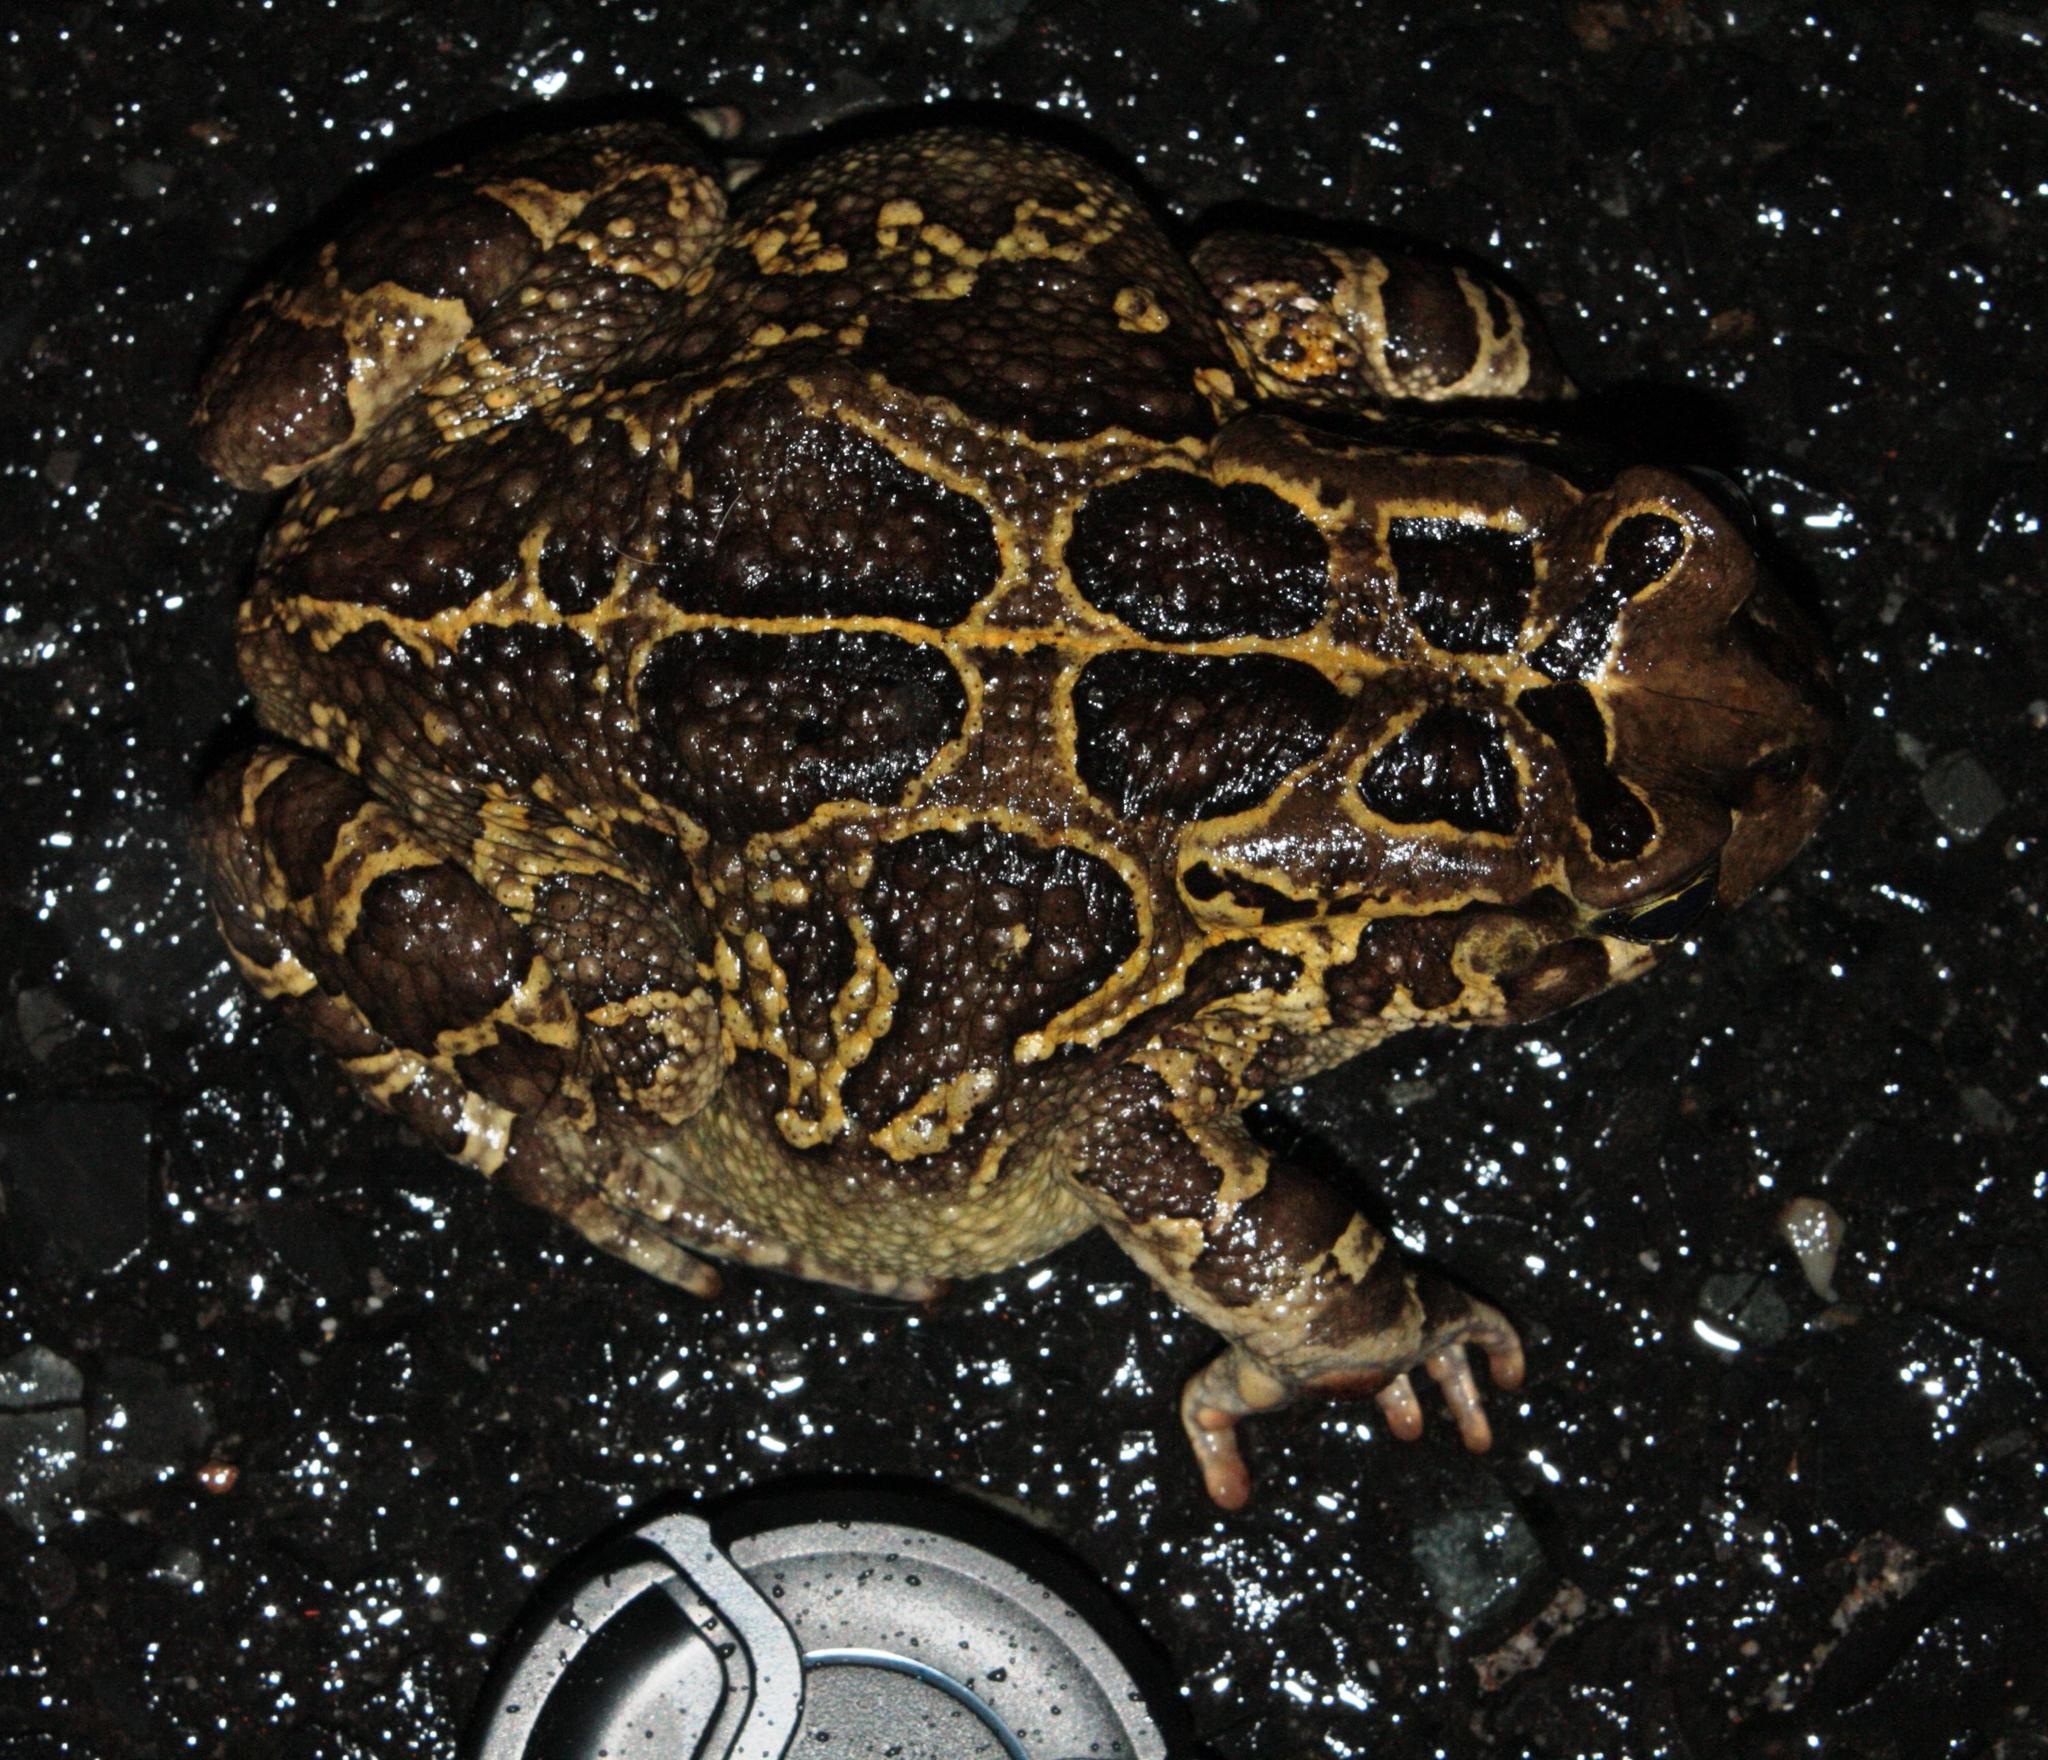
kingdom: Animalia
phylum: Chordata
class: Amphibia
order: Anura
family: Bufonidae
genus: Sclerophrys
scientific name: Sclerophrys pantherina
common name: Panther toad
